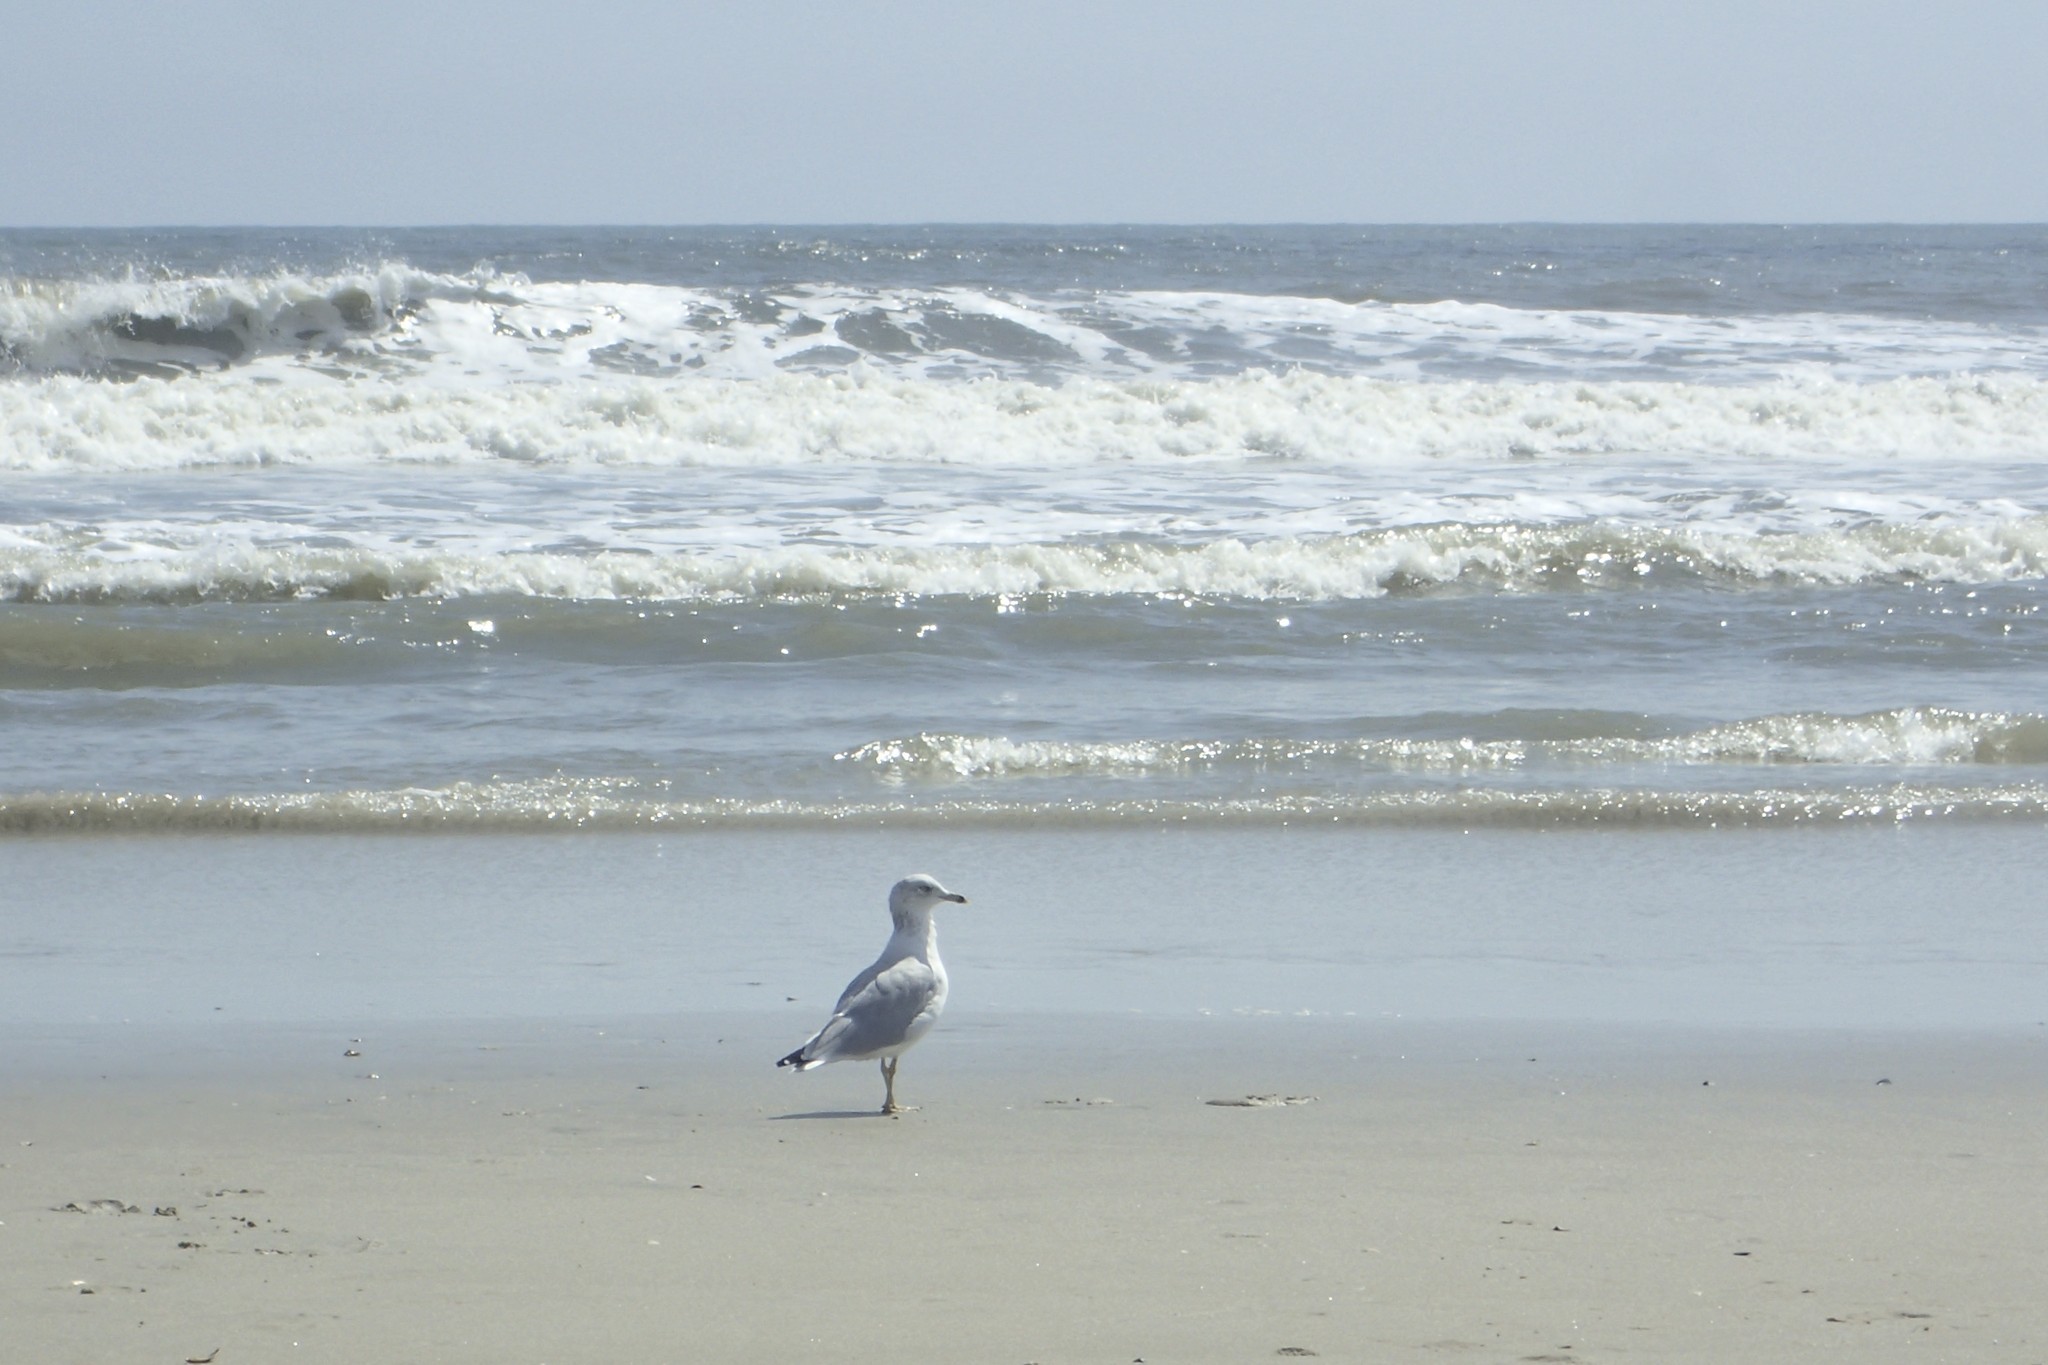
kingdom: Animalia
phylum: Chordata
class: Aves
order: Charadriiformes
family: Laridae
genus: Larus
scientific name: Larus delawarensis
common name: Ring-billed gull
